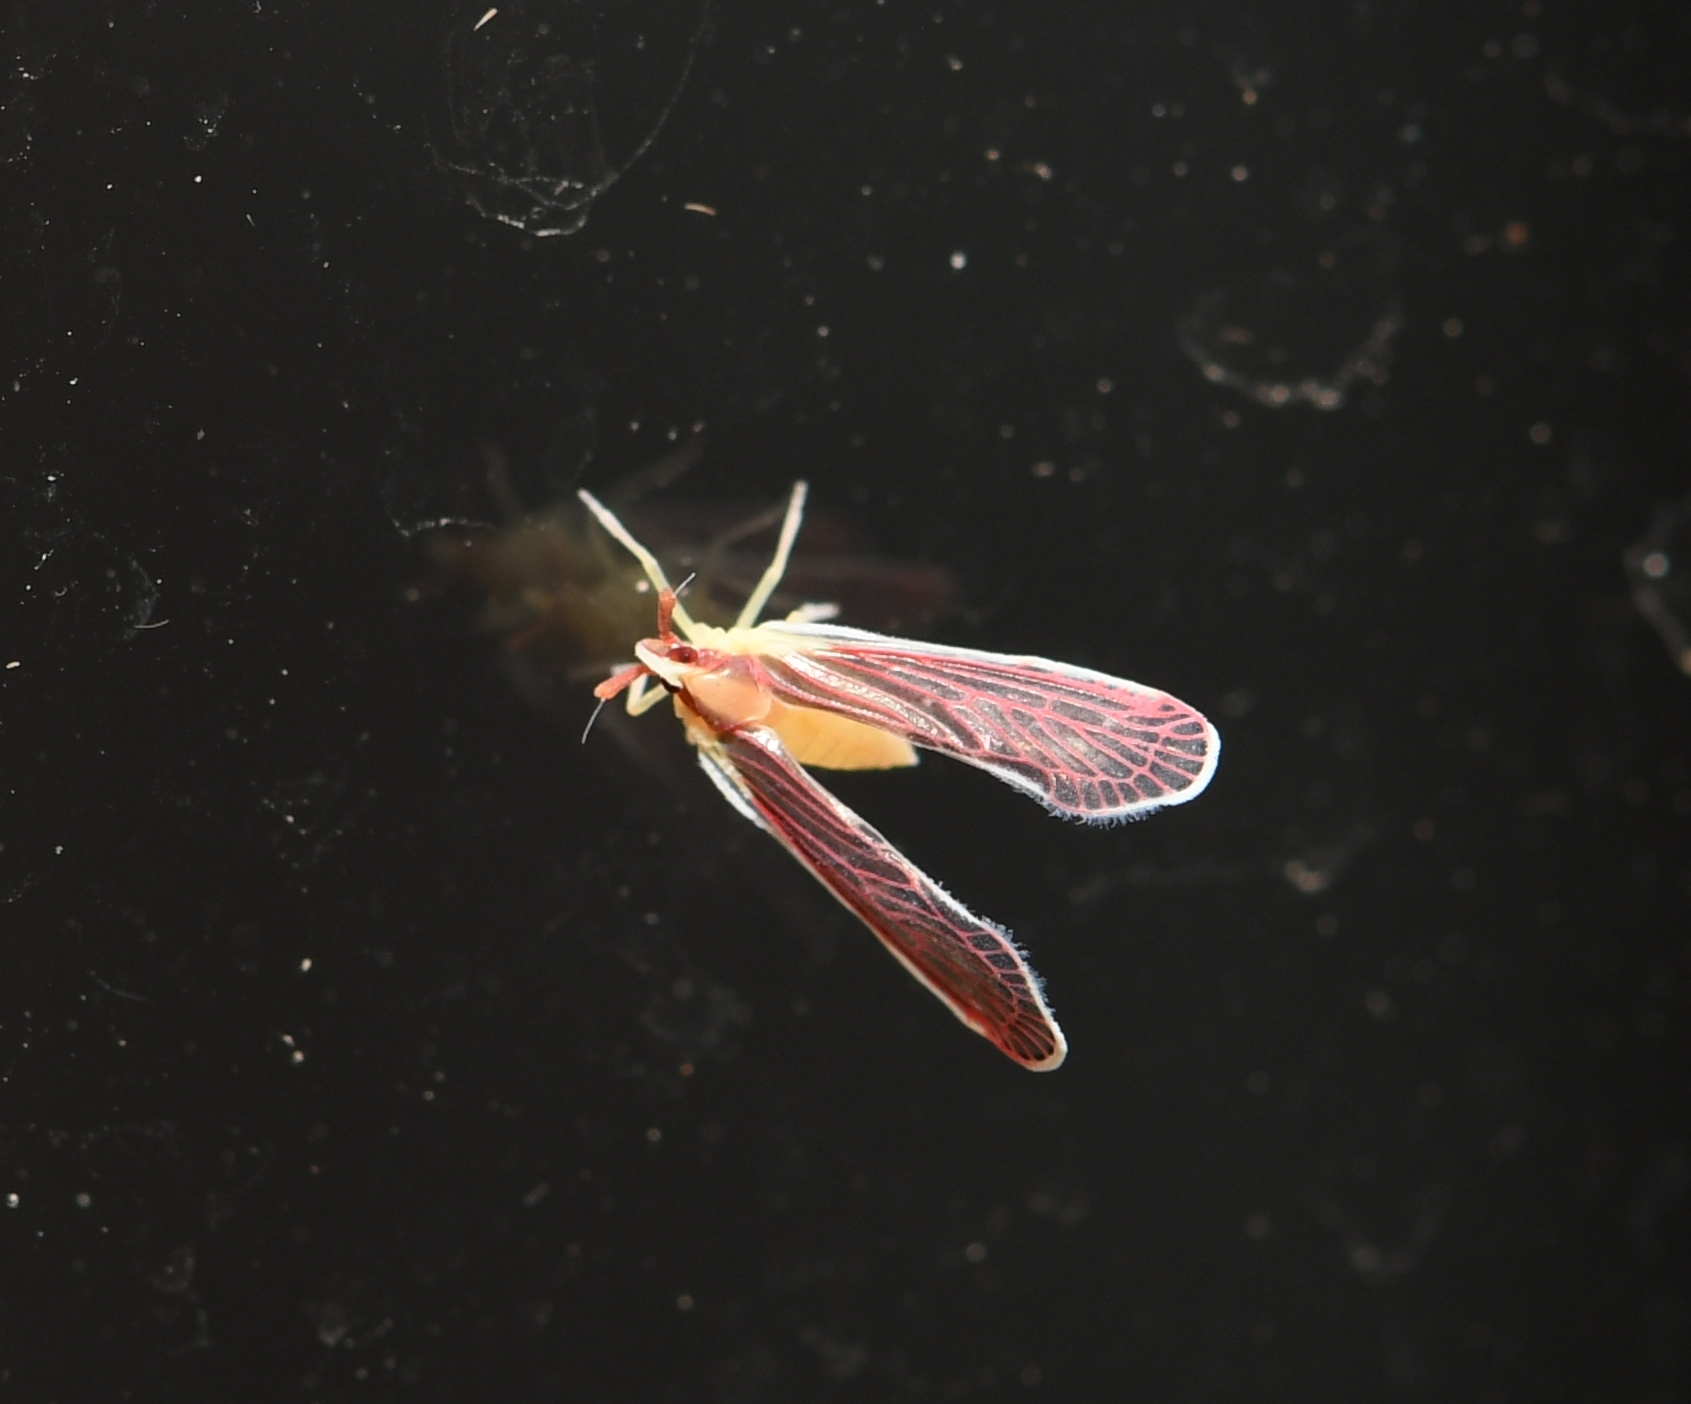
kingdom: Animalia
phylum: Arthropoda
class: Insecta
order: Hemiptera
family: Derbidae
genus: Anotia
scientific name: Anotia firebugia
